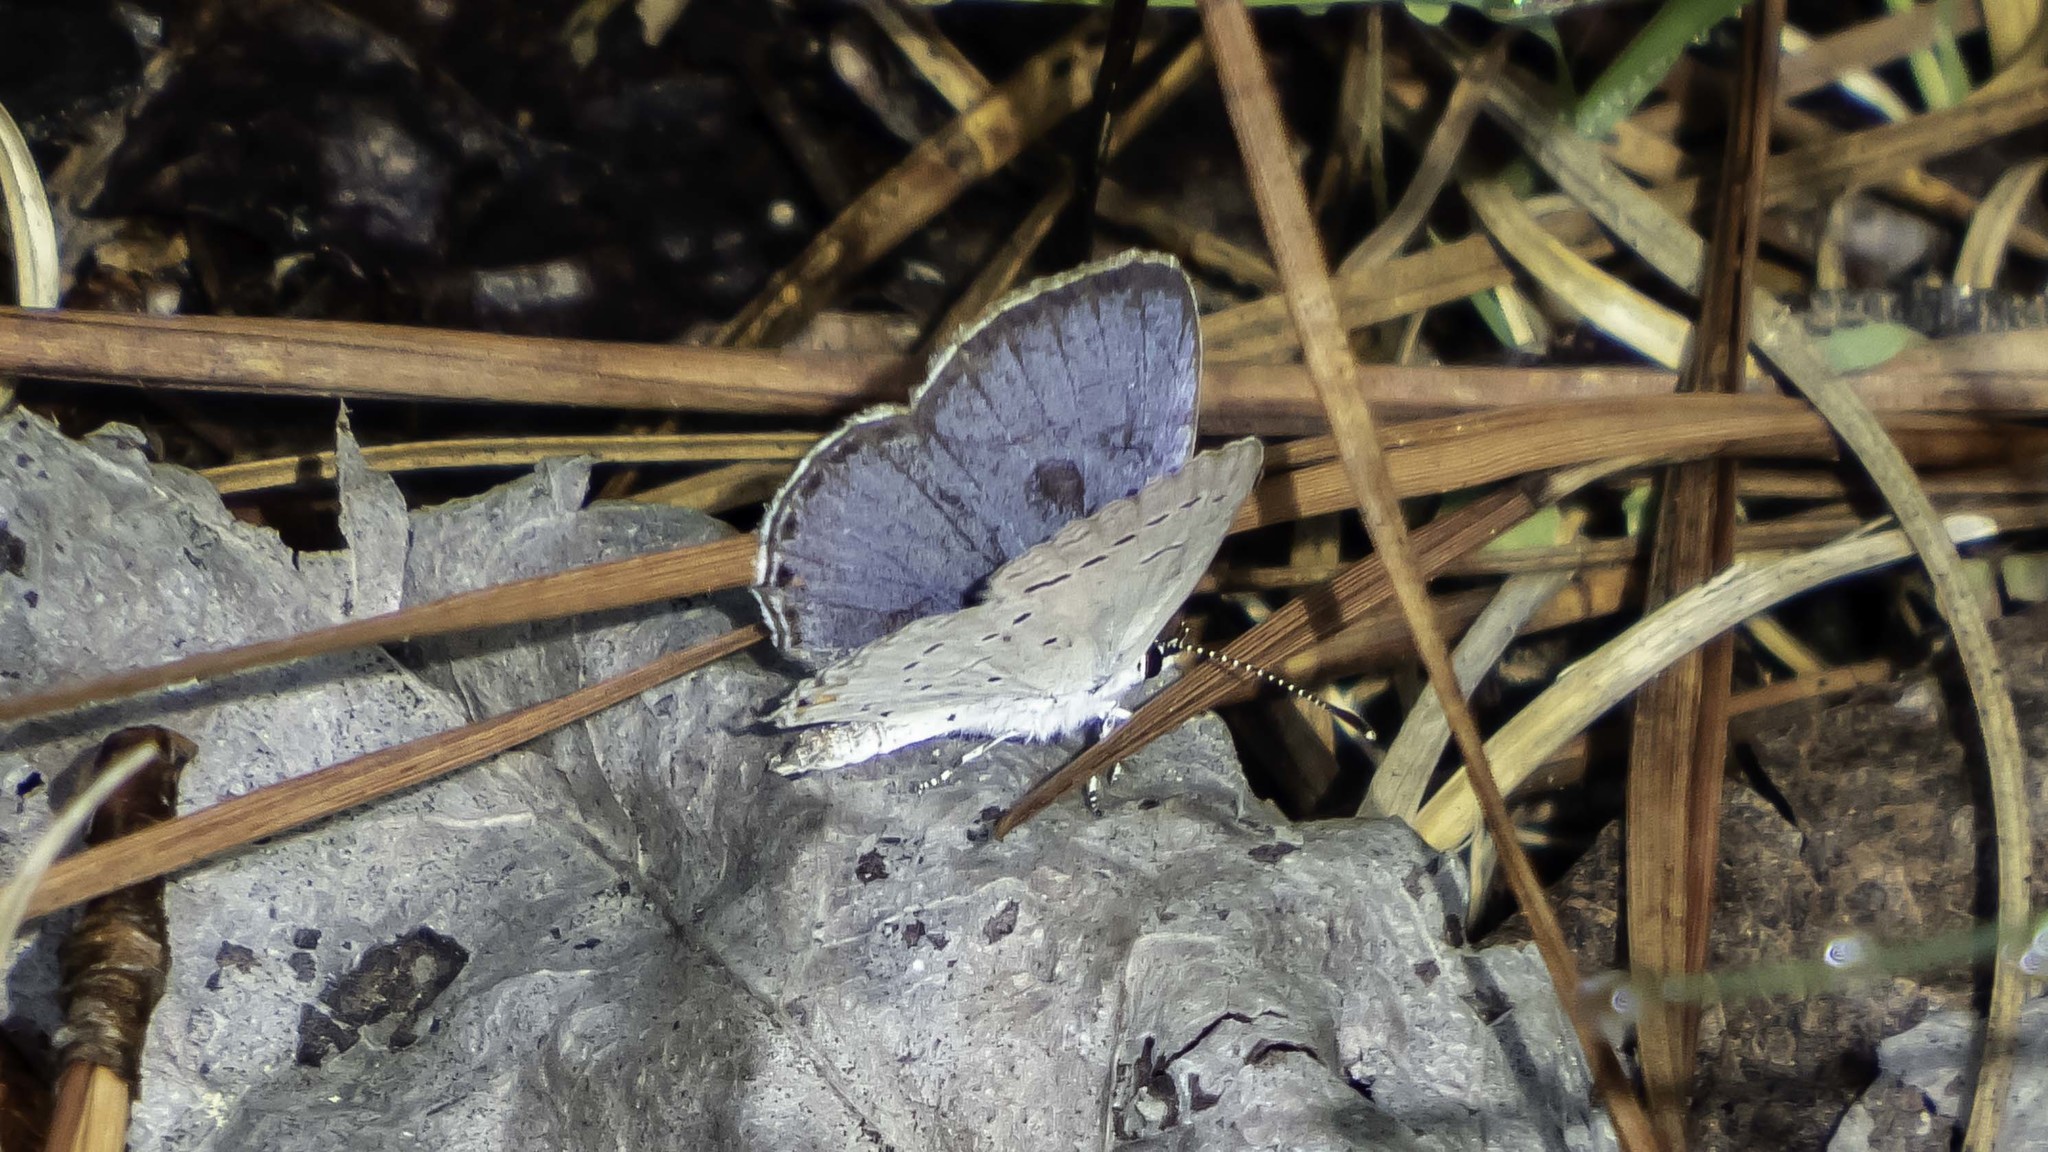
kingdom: Animalia
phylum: Arthropoda
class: Insecta
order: Lepidoptera
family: Lycaenidae
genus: Elkalyce
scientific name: Elkalyce comyntas
